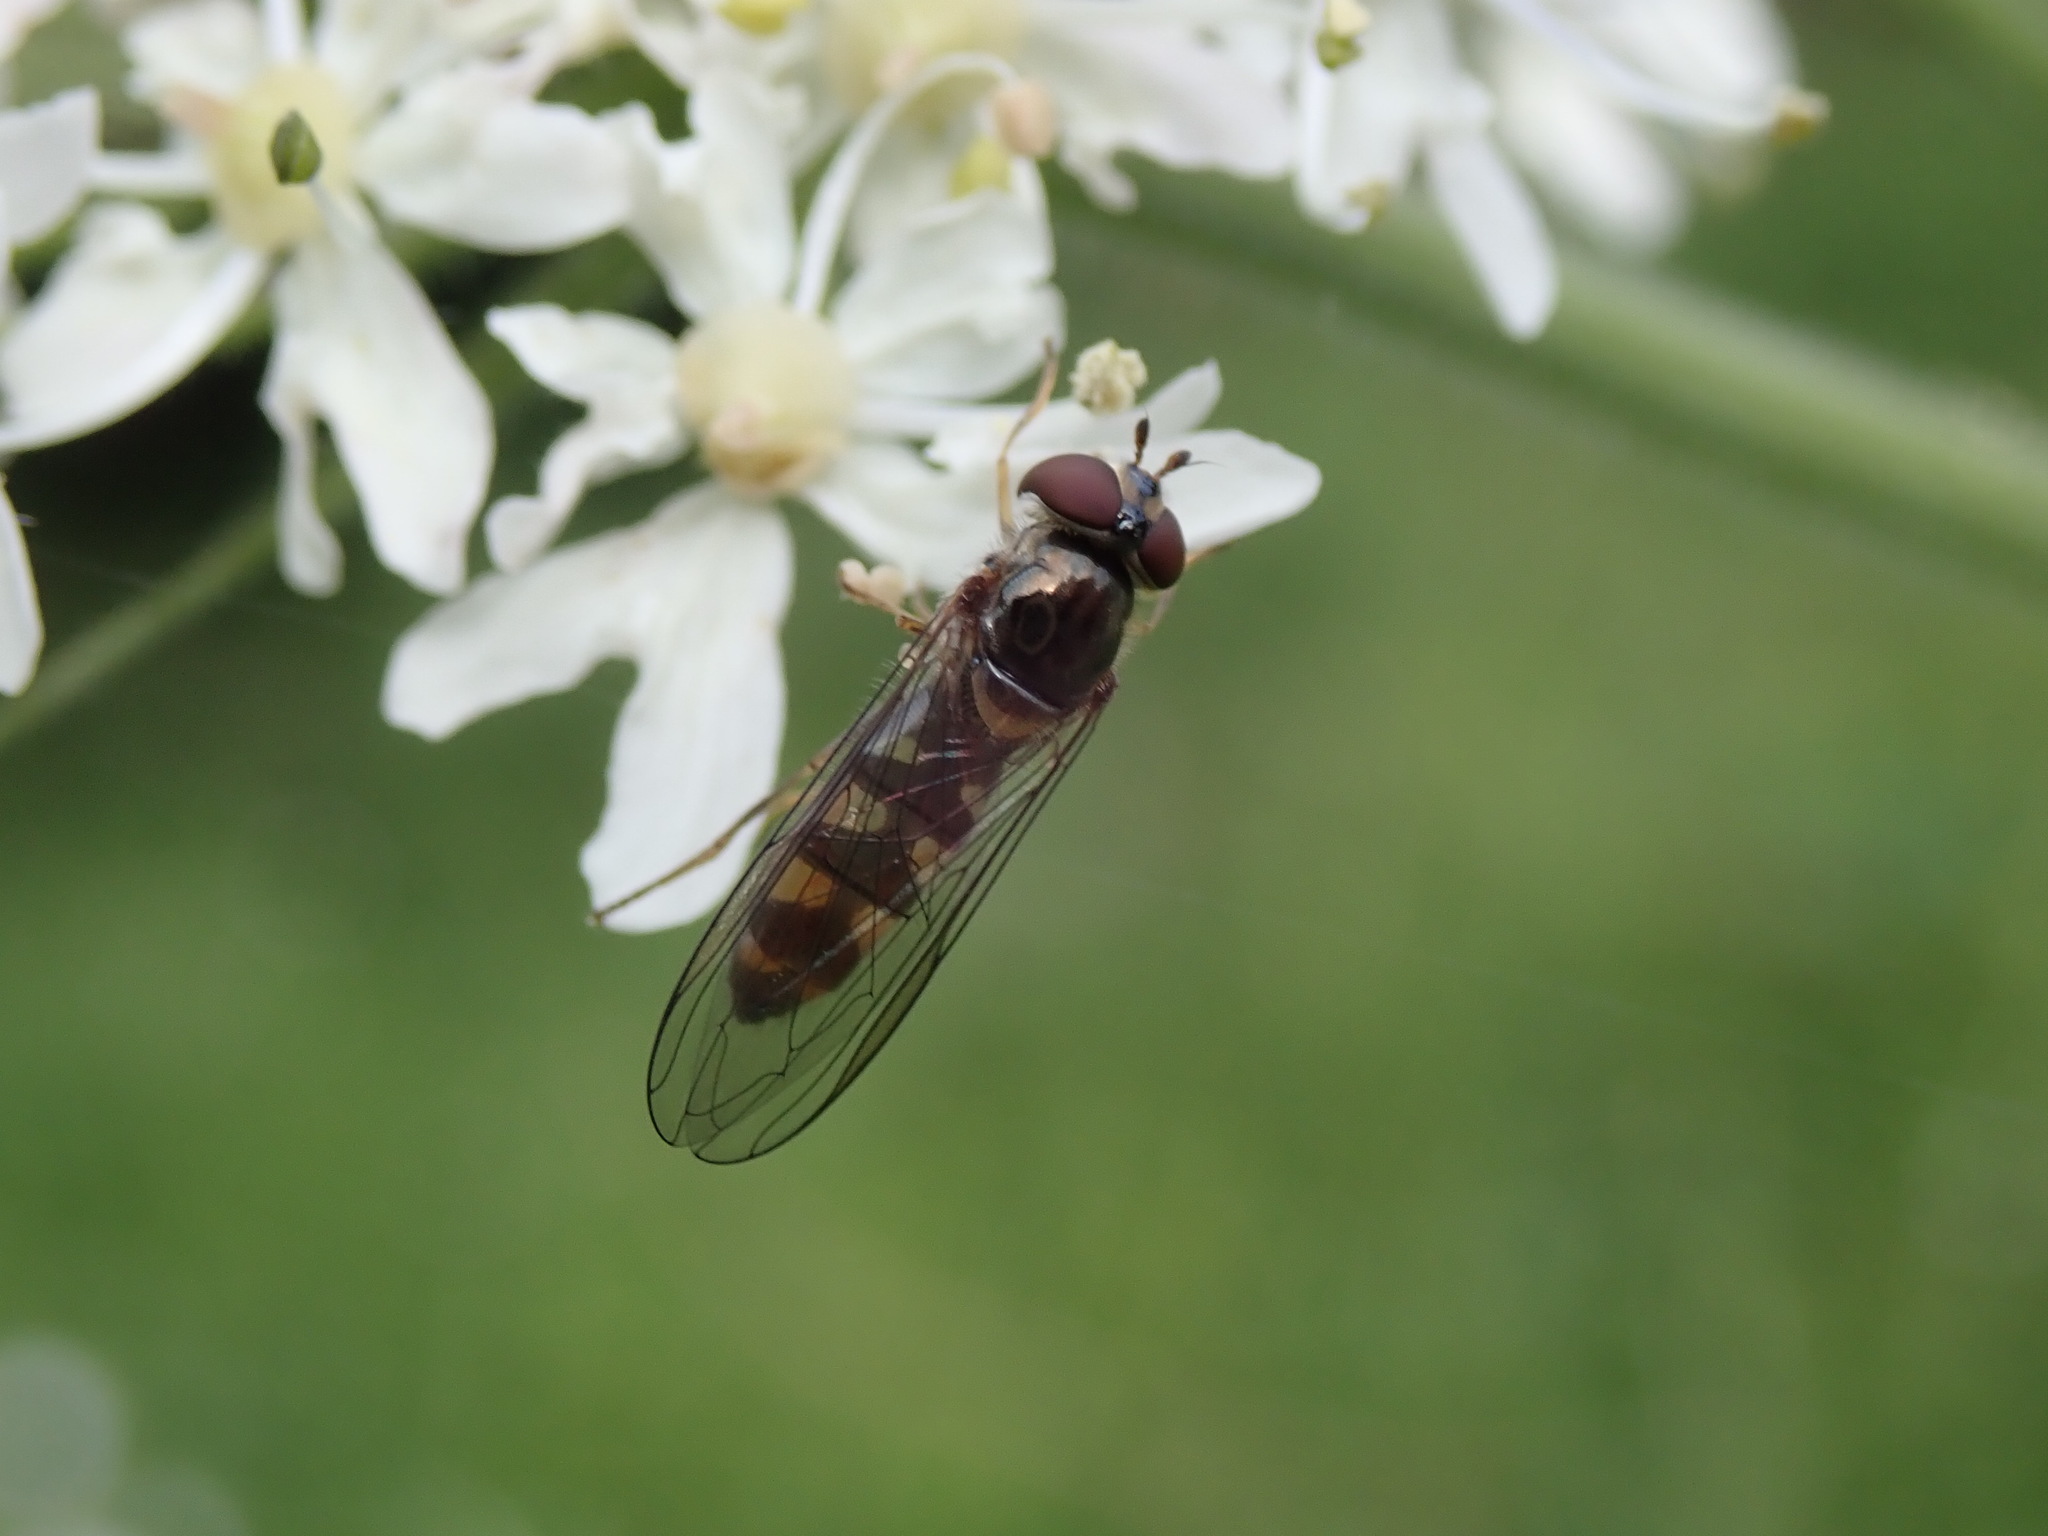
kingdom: Animalia
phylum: Arthropoda
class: Insecta
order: Diptera
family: Syrphidae
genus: Meliscaeva
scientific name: Meliscaeva auricollis
